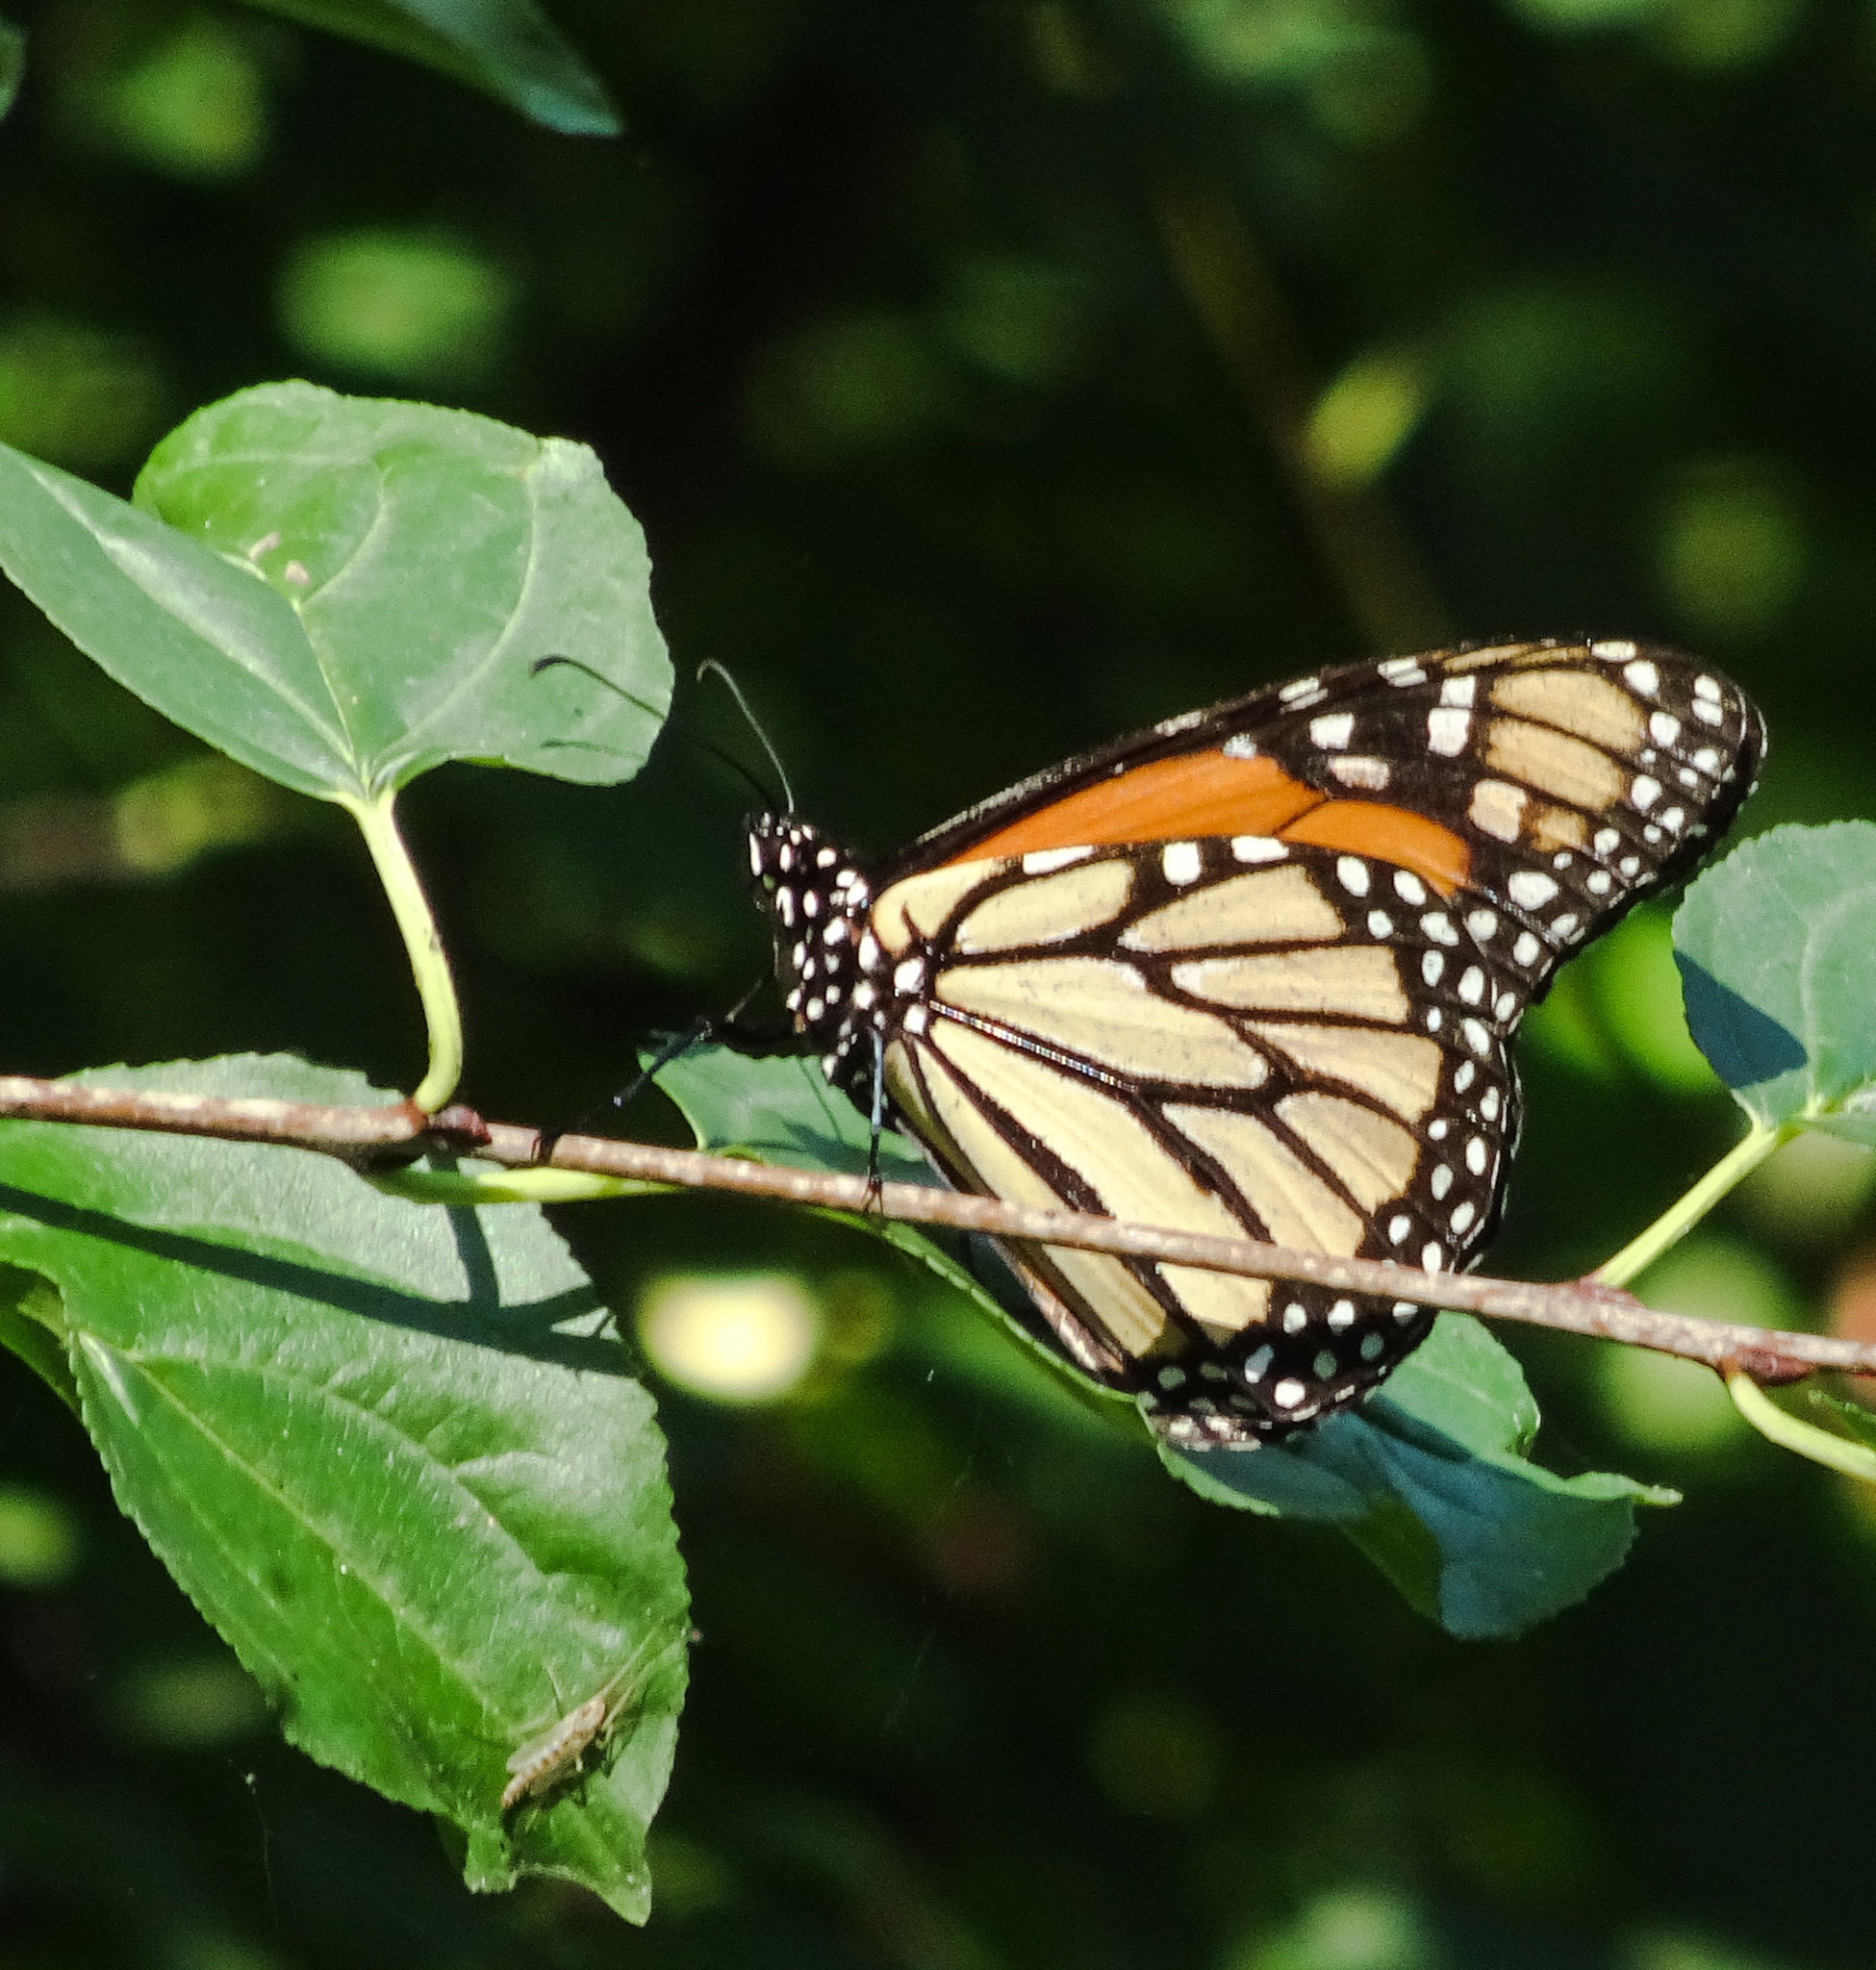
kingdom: Animalia
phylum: Arthropoda
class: Insecta
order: Lepidoptera
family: Nymphalidae
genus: Danaus
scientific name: Danaus plexippus
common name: Monarch
